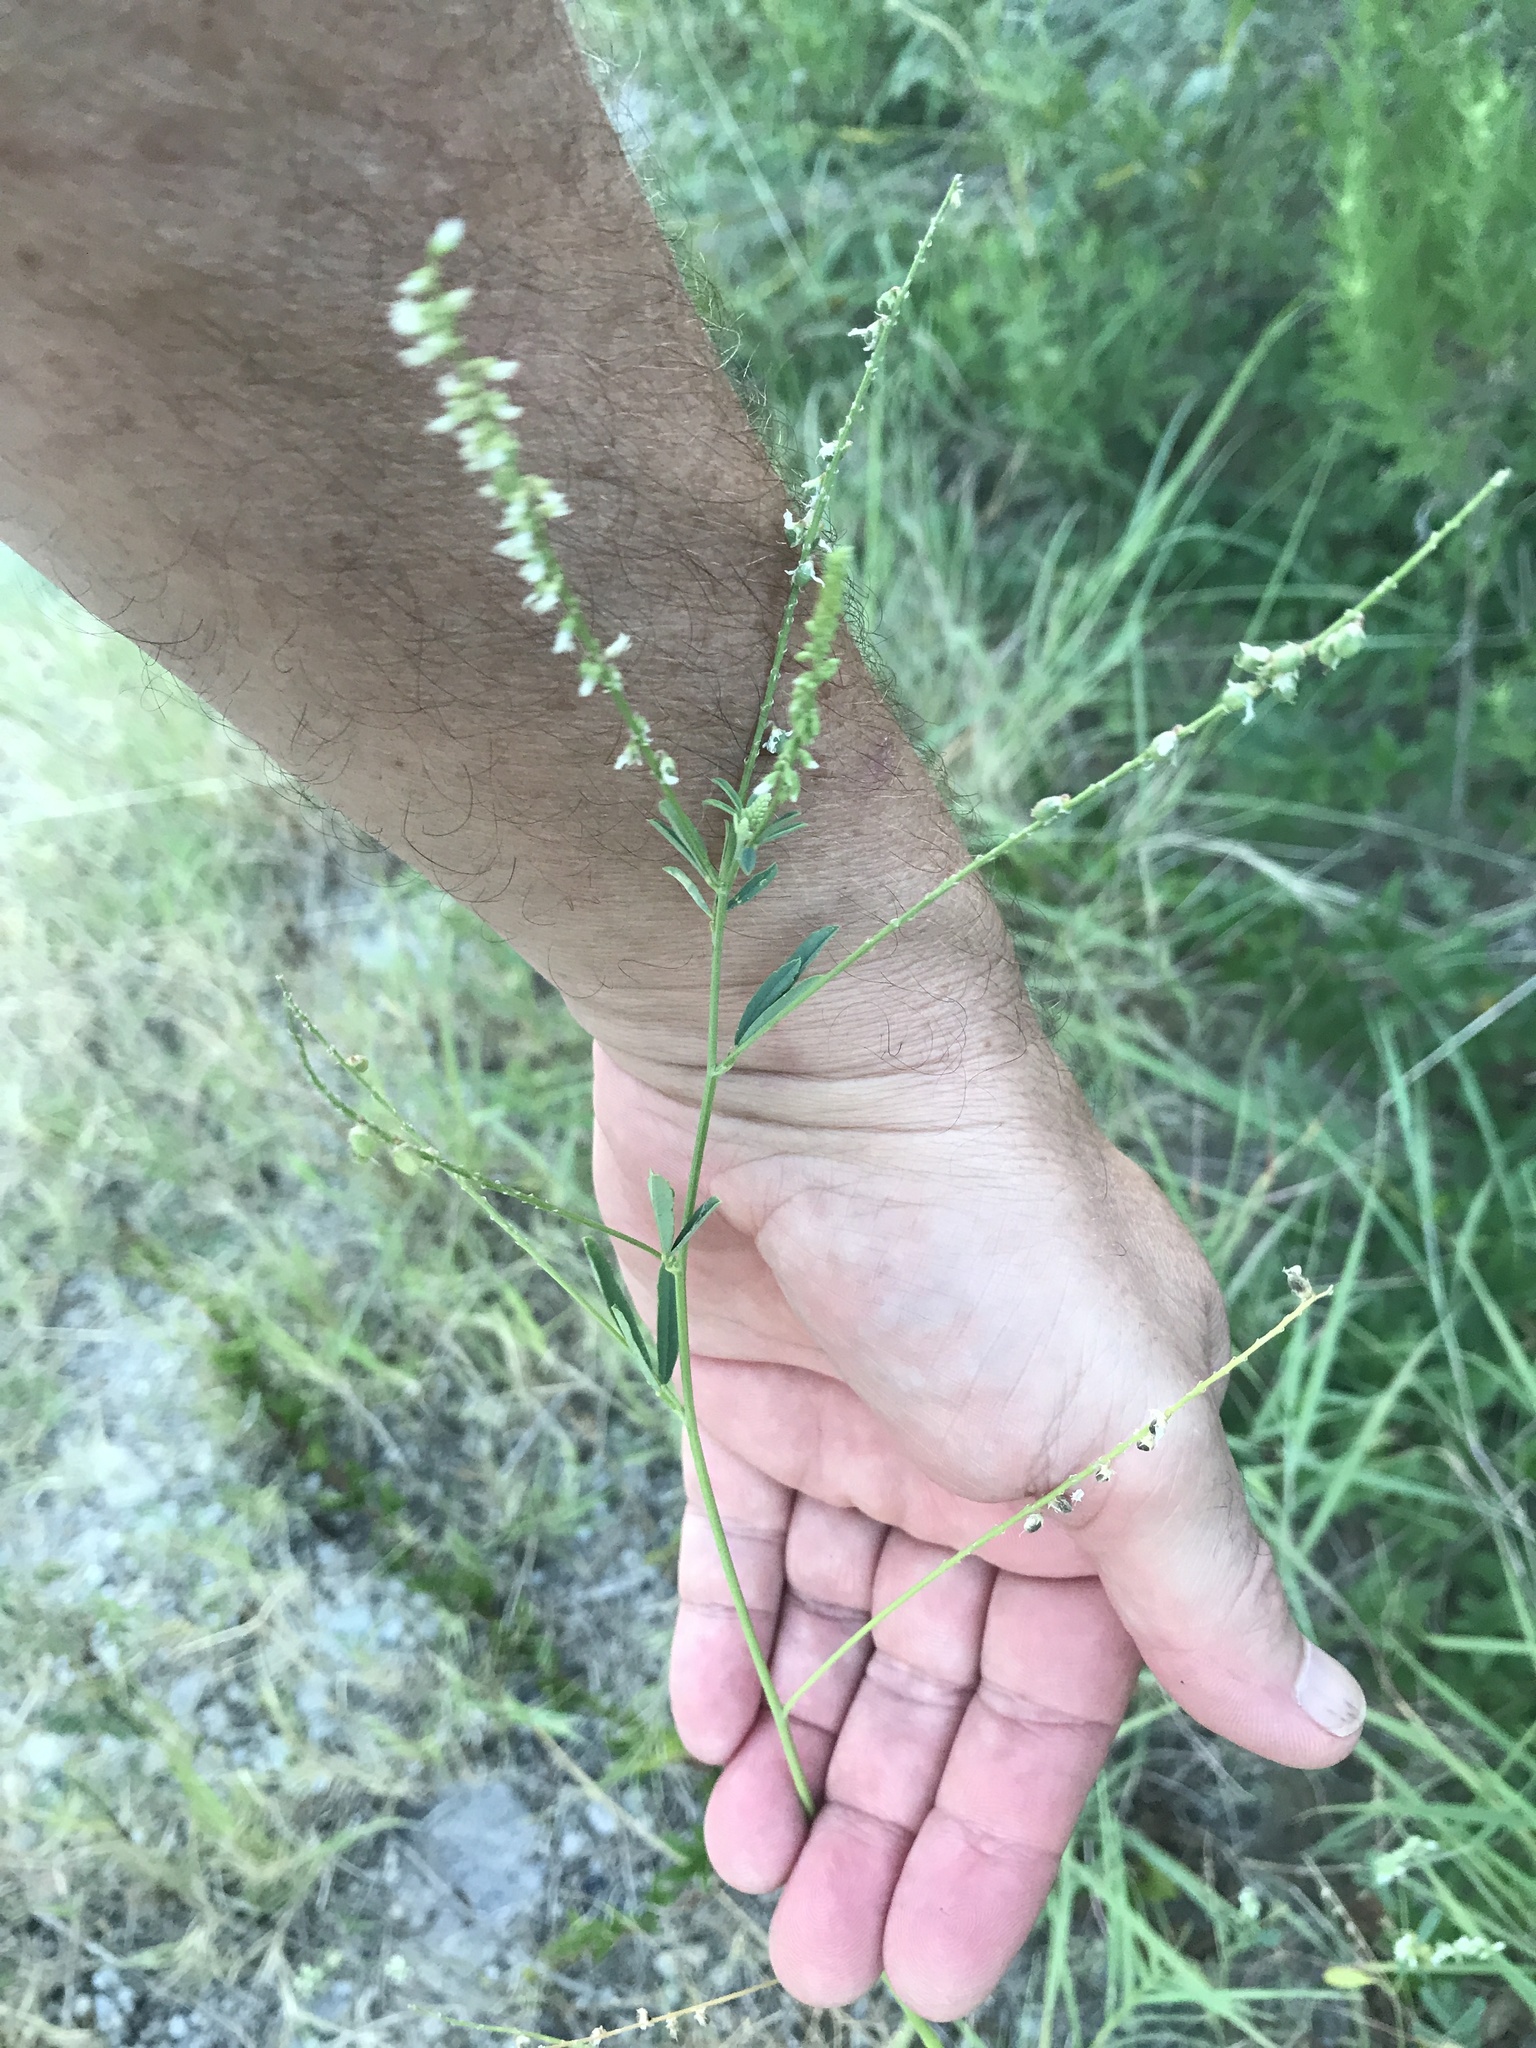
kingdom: Plantae
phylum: Tracheophyta
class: Magnoliopsida
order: Fabales
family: Fabaceae
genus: Melilotus
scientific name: Melilotus albus
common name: White melilot
